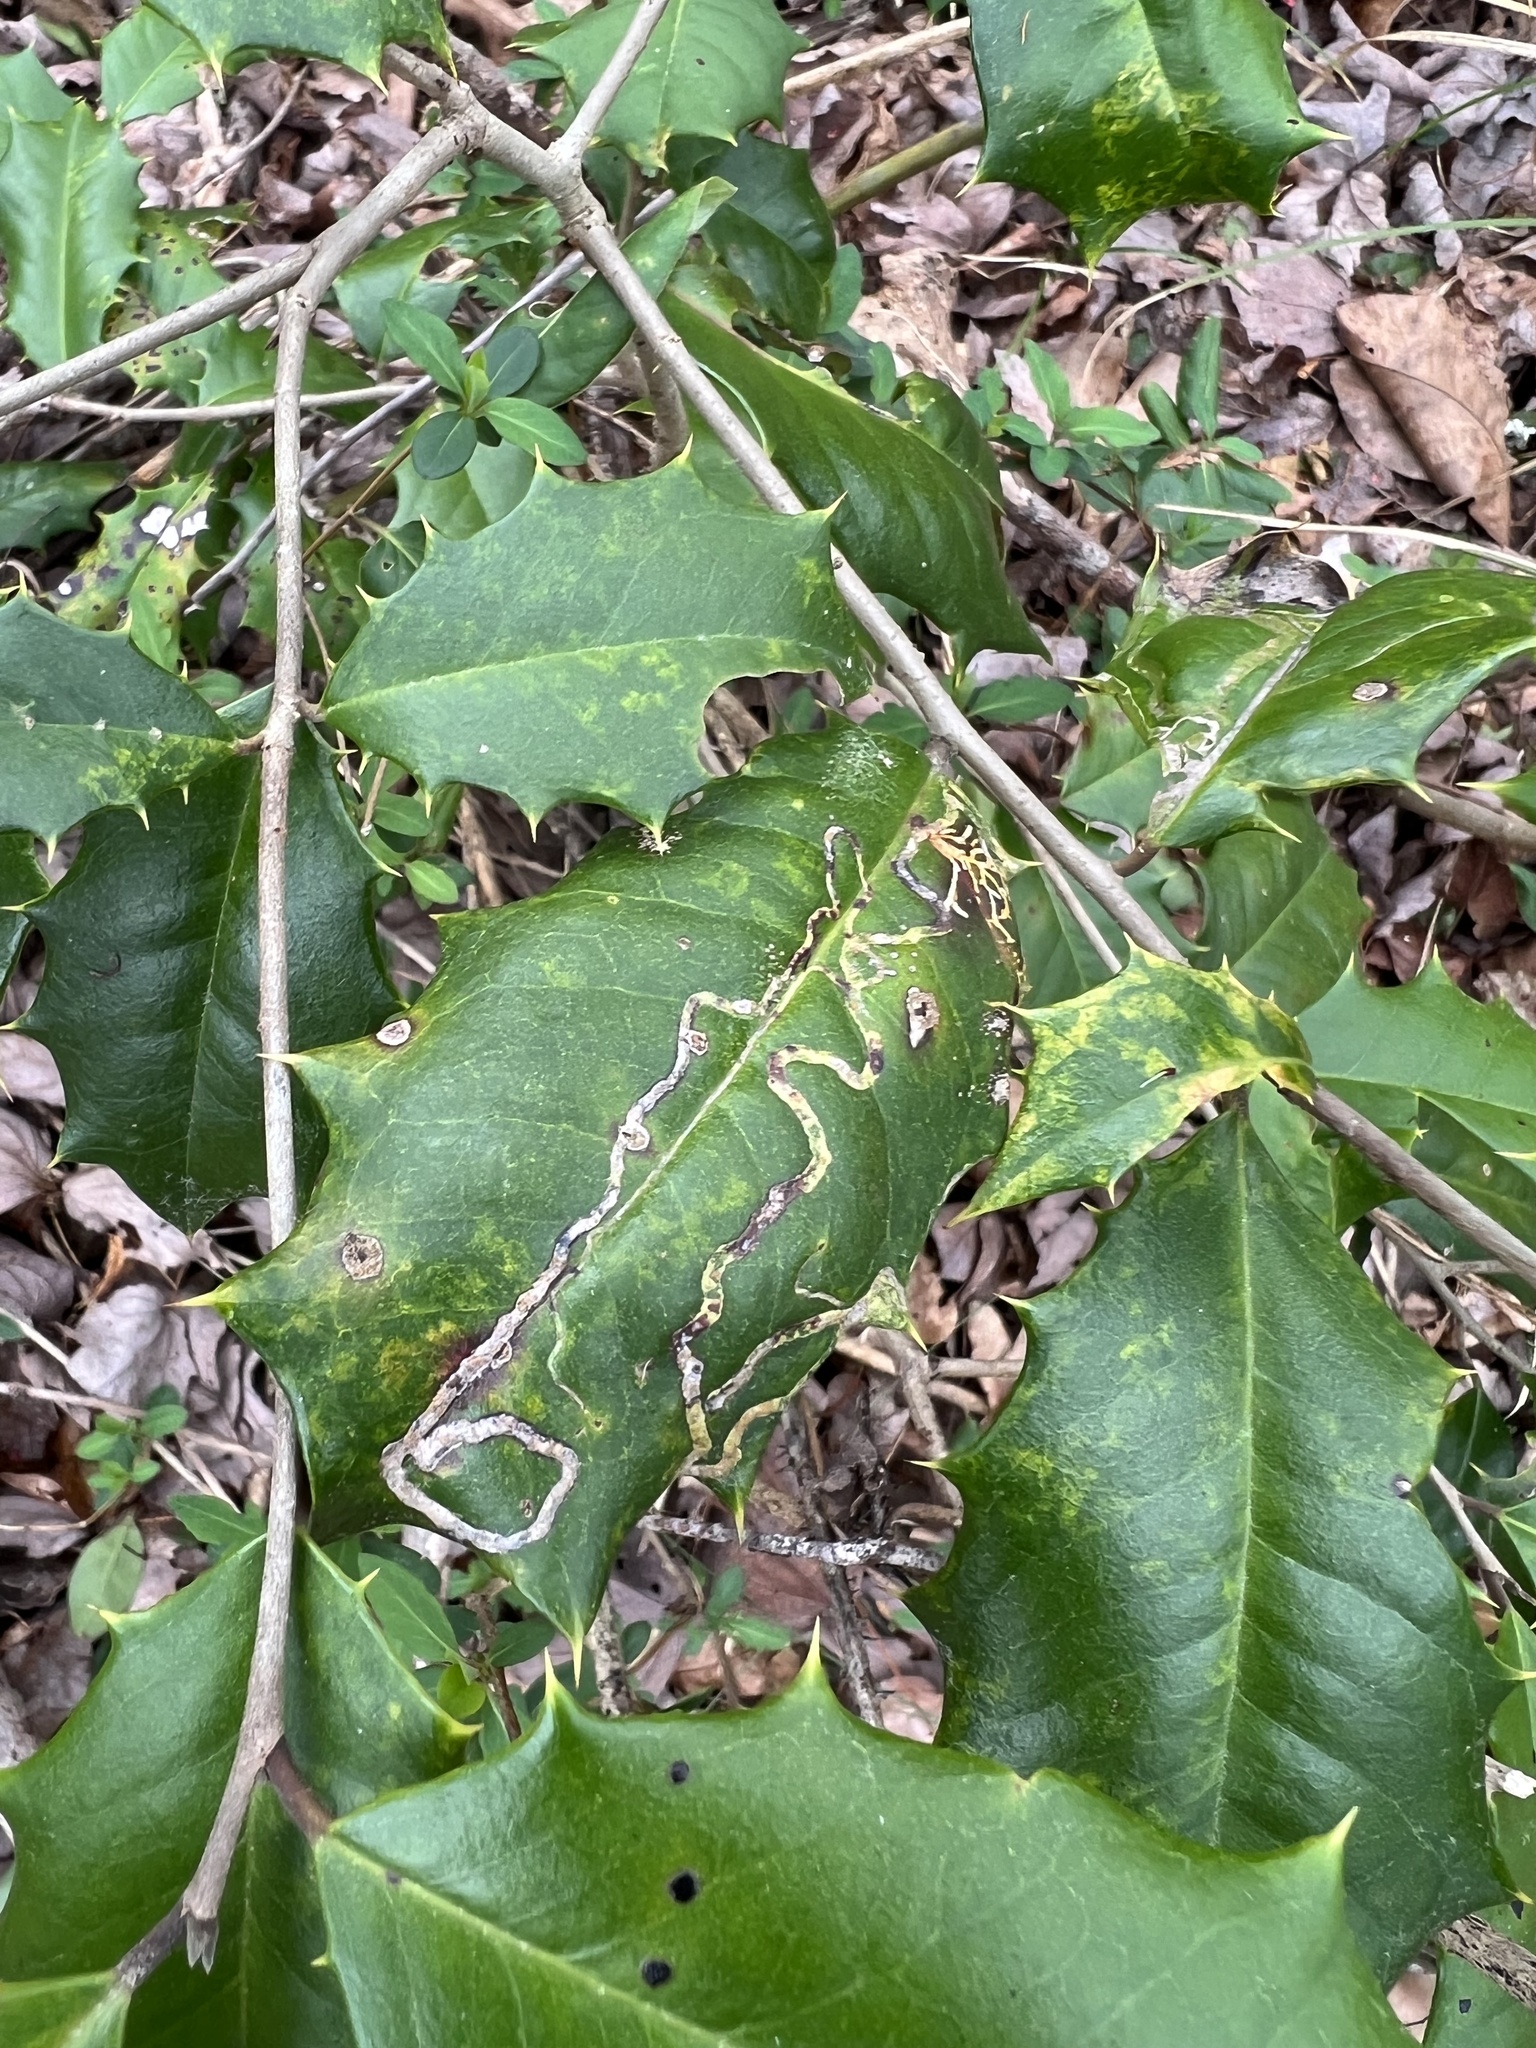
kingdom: Animalia
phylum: Arthropoda
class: Insecta
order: Diptera
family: Agromyzidae
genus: Phytomyza
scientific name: Phytomyza opacae
